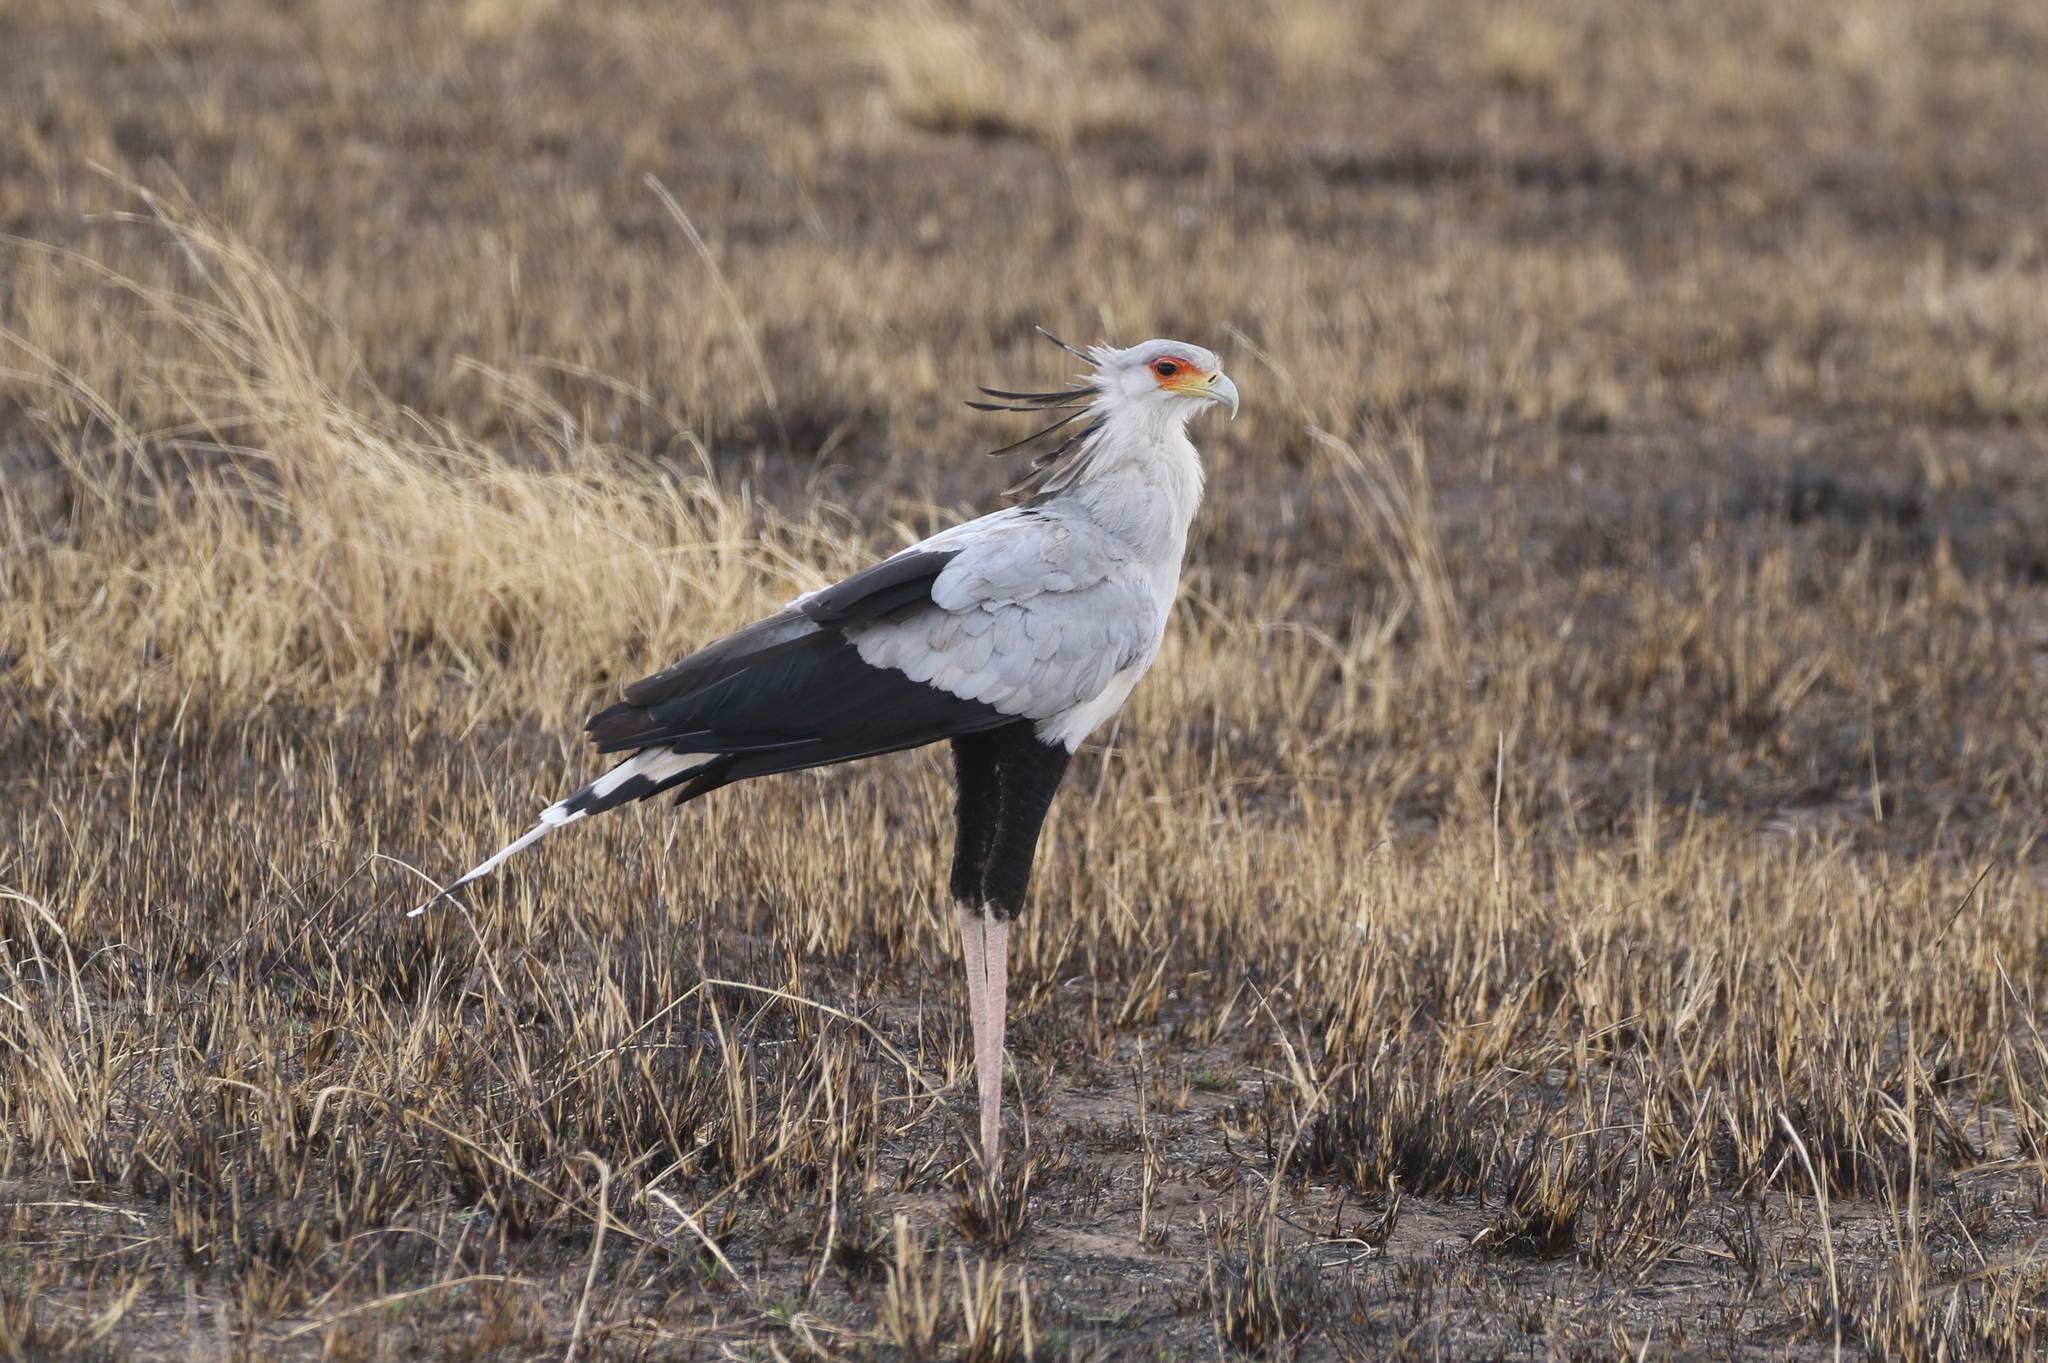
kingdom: Animalia
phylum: Chordata
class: Aves
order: Accipitriformes
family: Sagittariidae
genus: Sagittarius
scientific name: Sagittarius serpentarius
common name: Secretarybird
